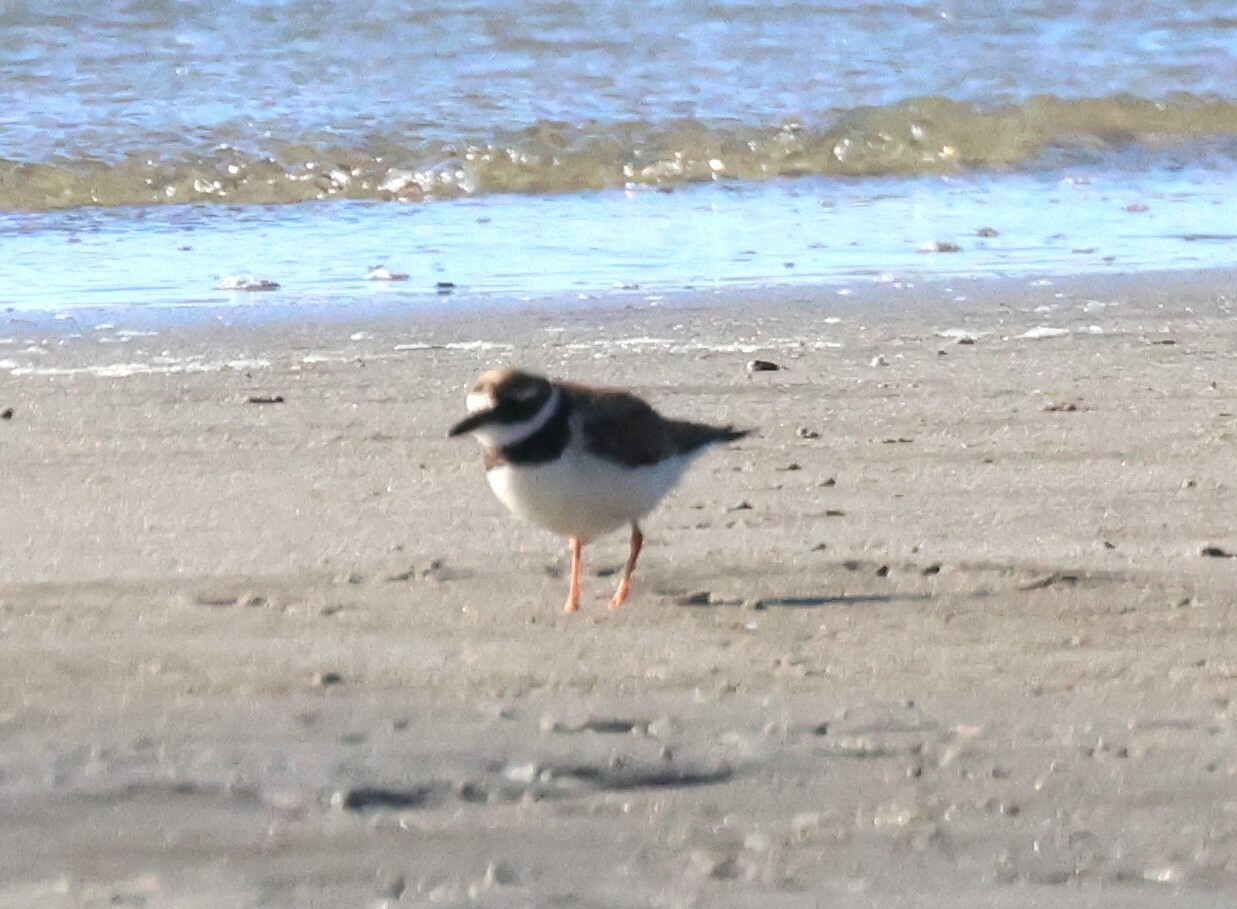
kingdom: Animalia
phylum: Chordata
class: Aves
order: Charadriiformes
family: Charadriidae
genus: Charadrius
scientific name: Charadrius hiaticula
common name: Common ringed plover
